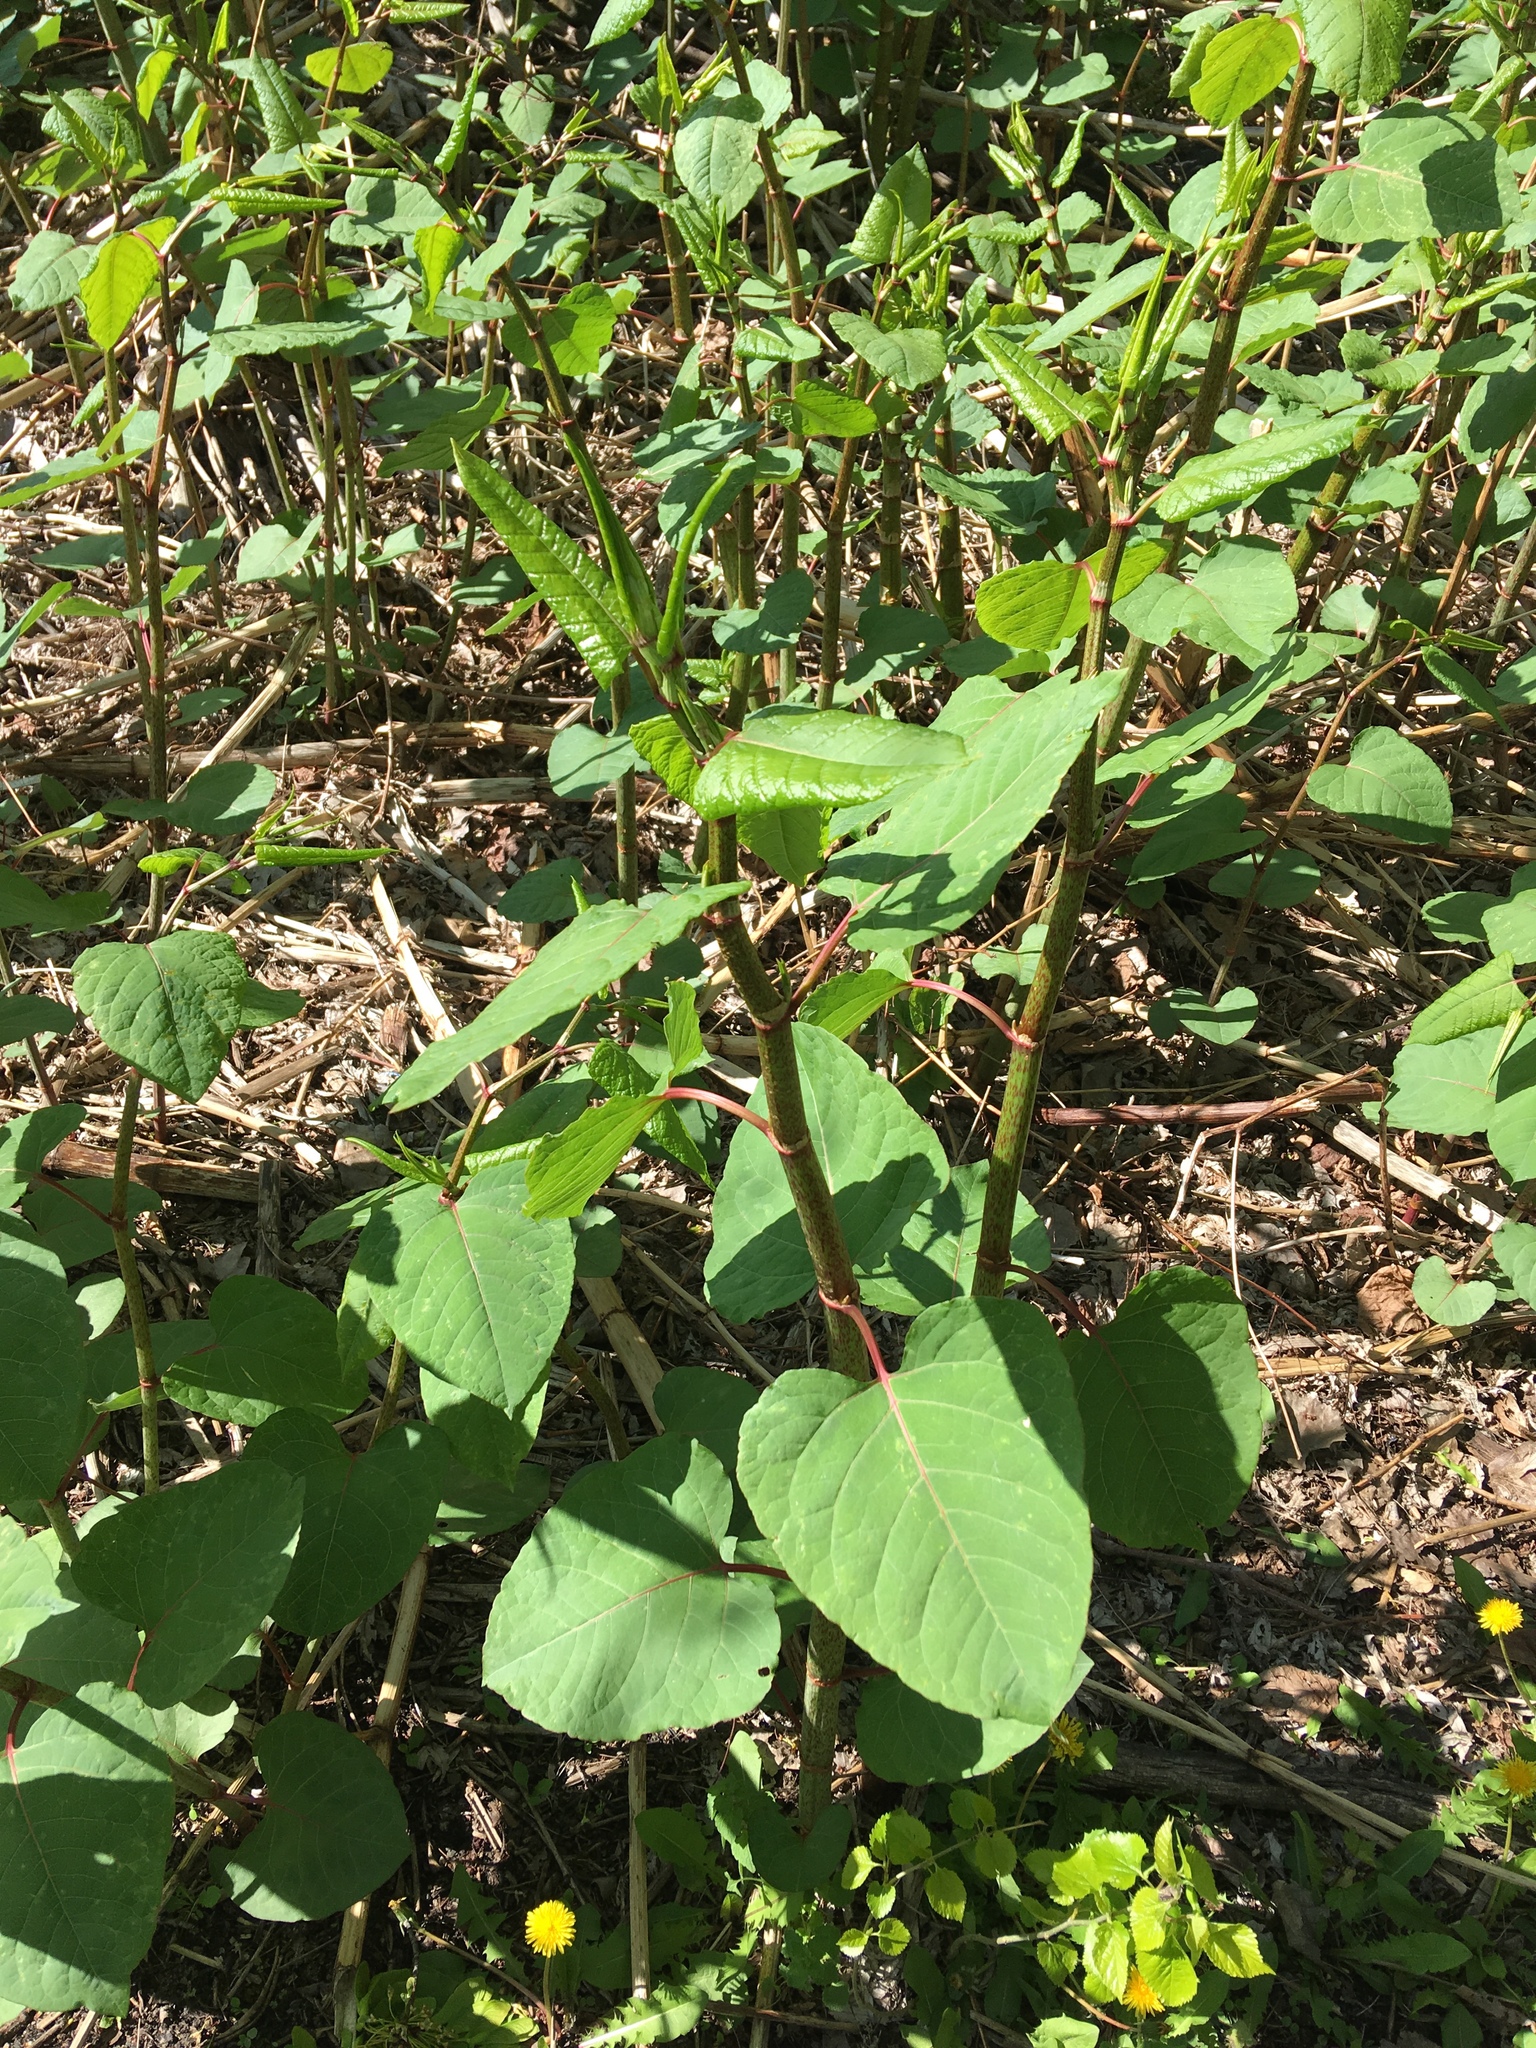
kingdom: Plantae
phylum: Tracheophyta
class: Magnoliopsida
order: Caryophyllales
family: Polygonaceae
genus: Reynoutria
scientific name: Reynoutria sachalinensis
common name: Giant knotweed
